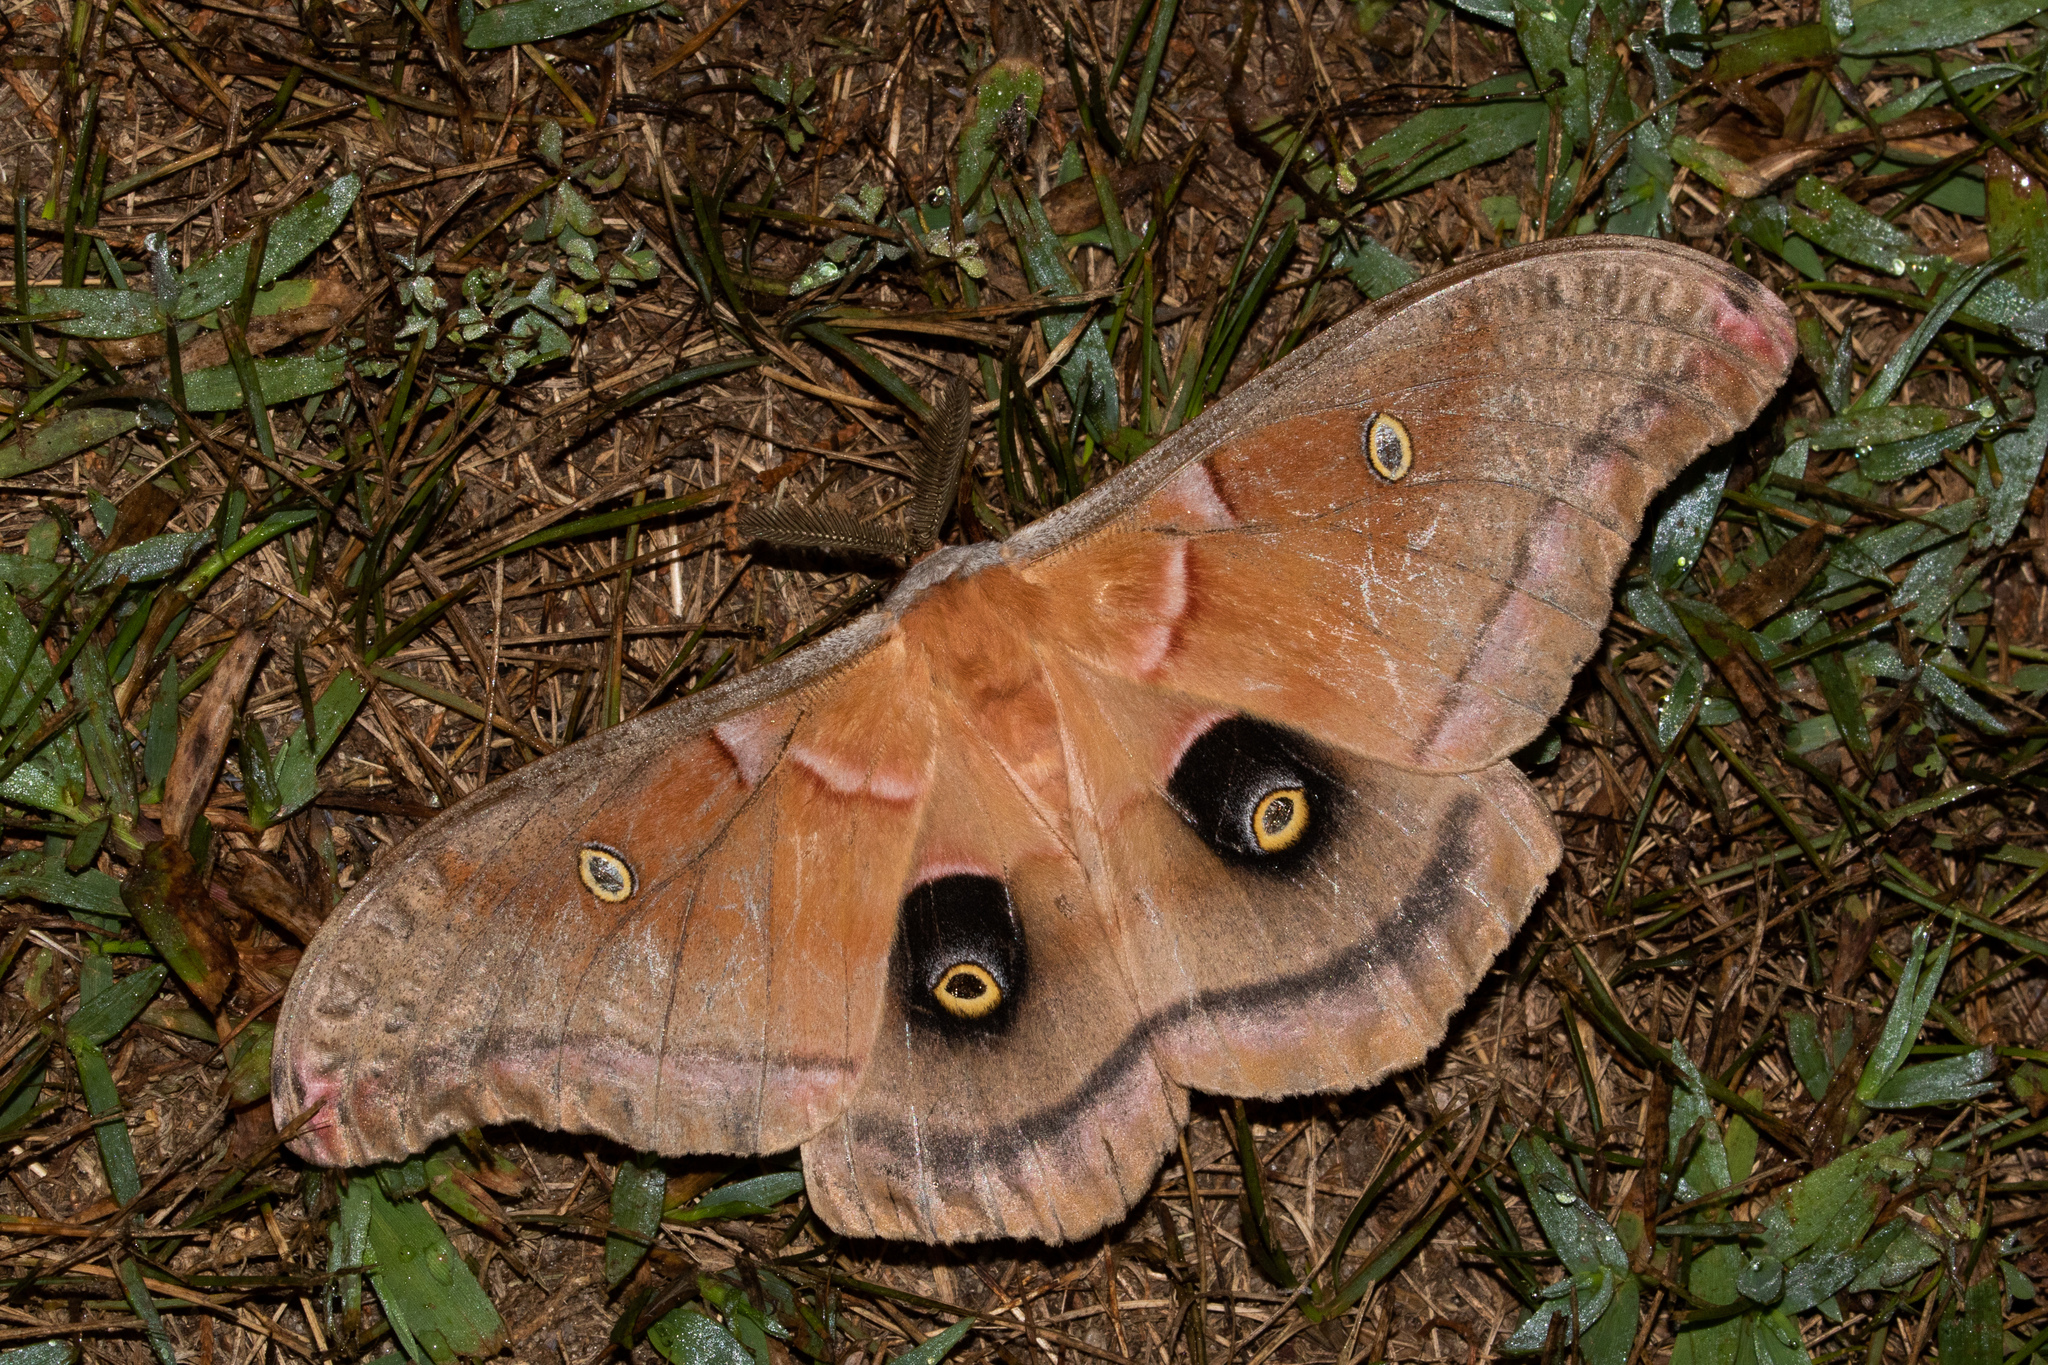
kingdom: Animalia
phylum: Arthropoda
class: Insecta
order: Lepidoptera
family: Saturniidae
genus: Antheraea
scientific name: Antheraea polyphemus
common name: Polyphemus moth
